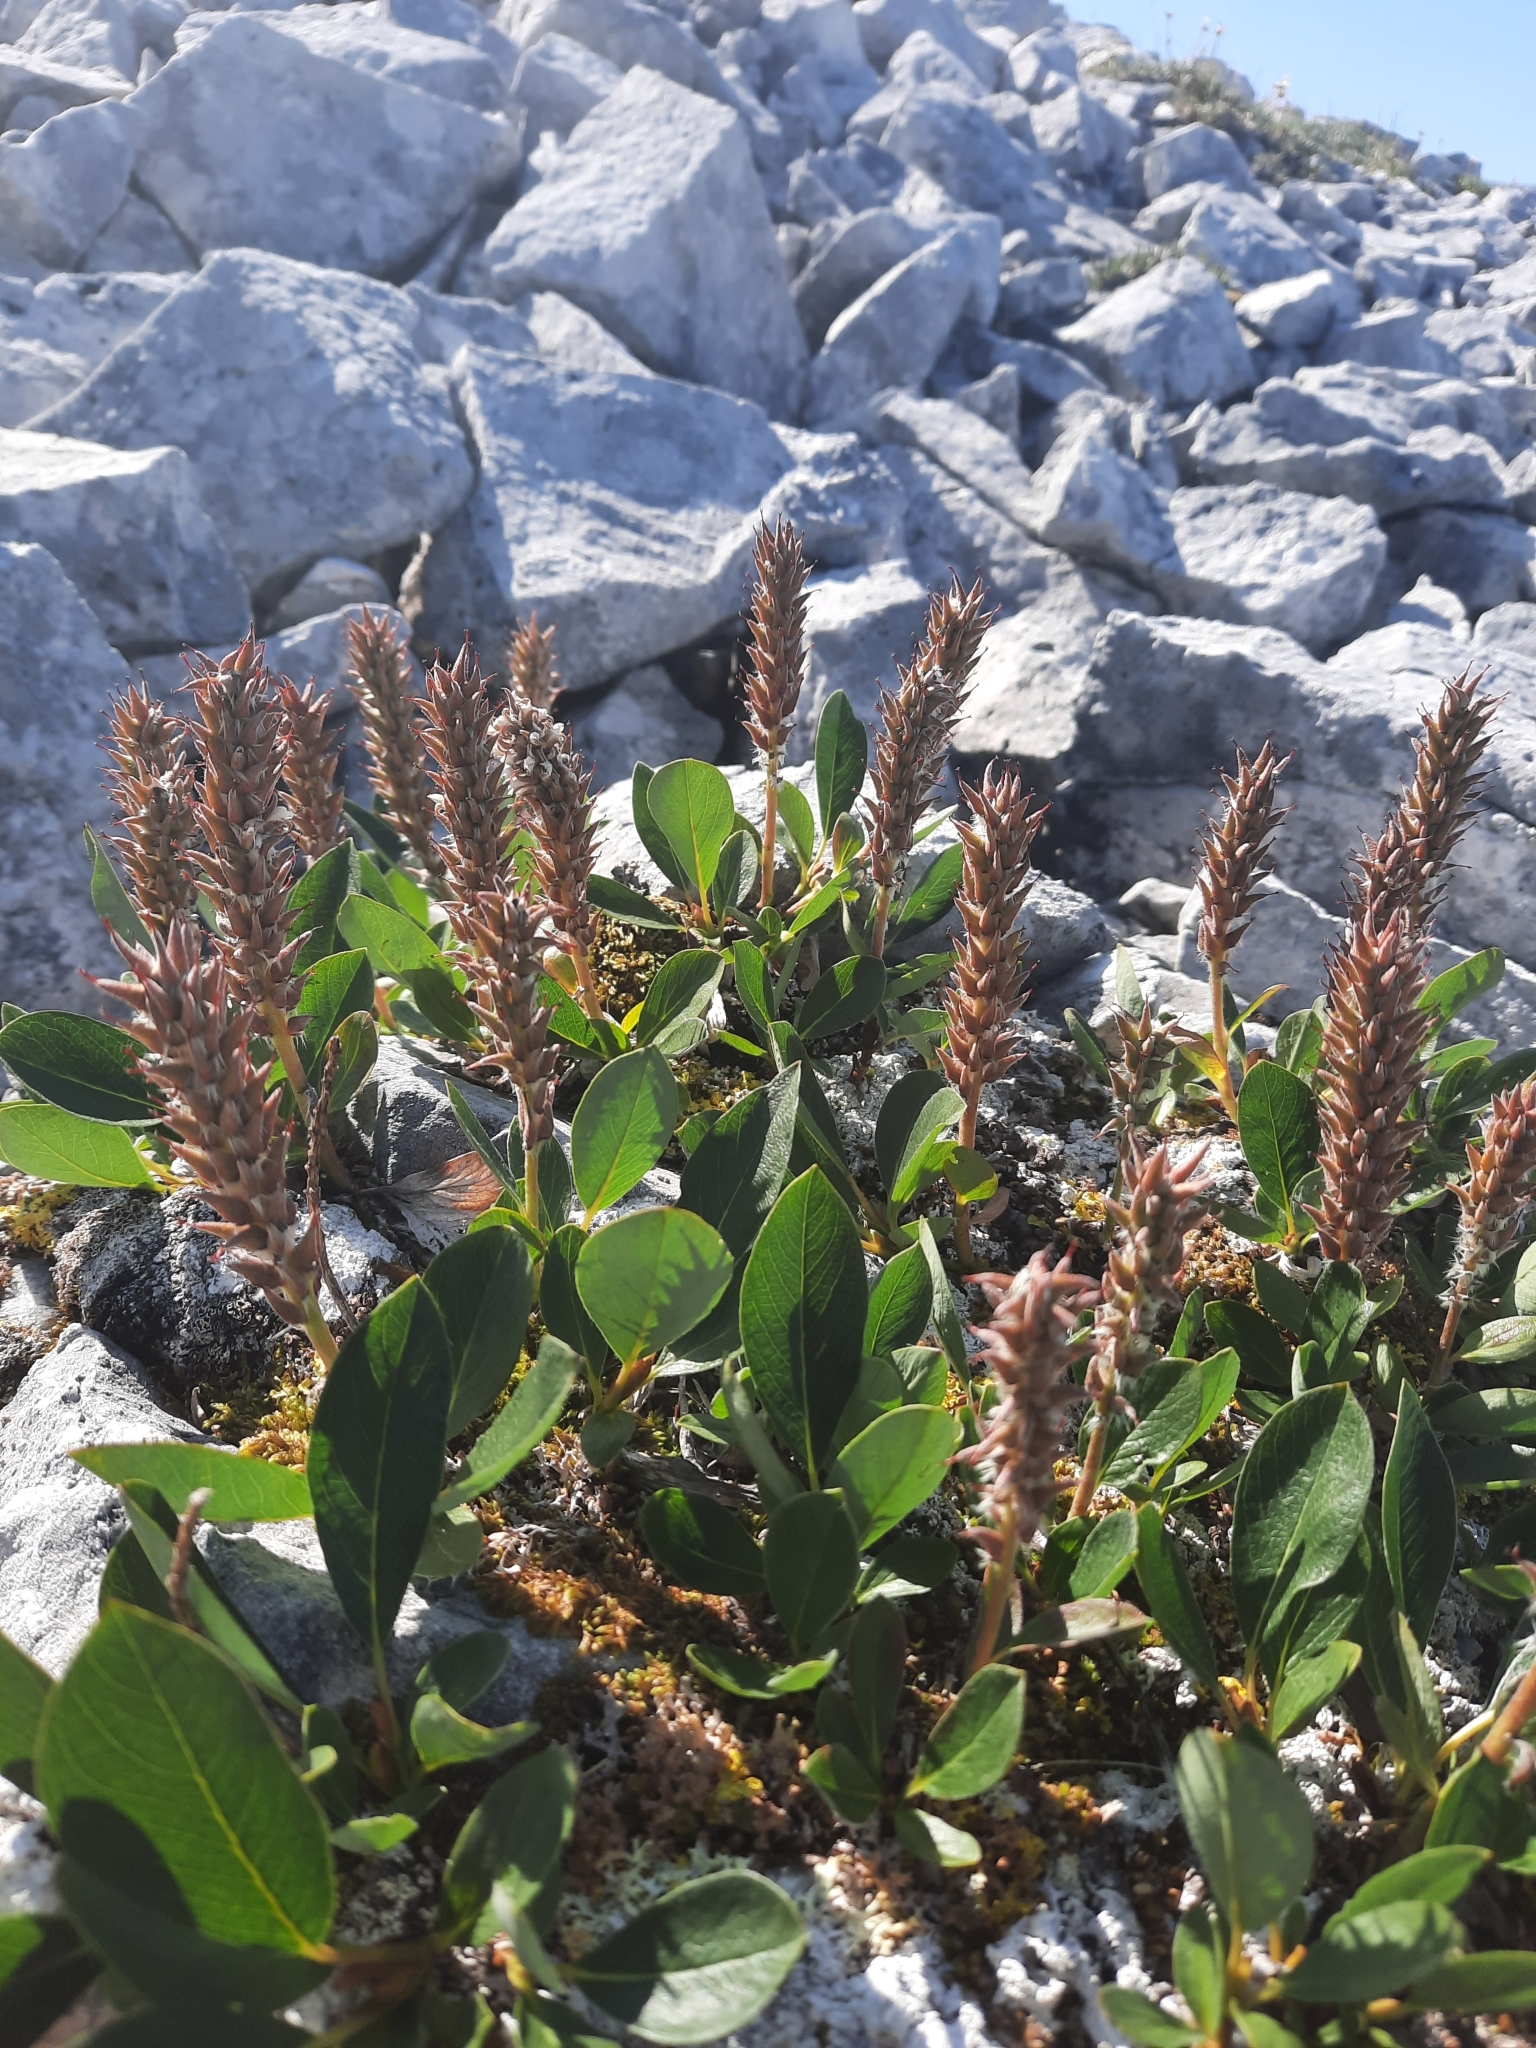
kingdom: Plantae
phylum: Tracheophyta
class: Magnoliopsida
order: Malpighiales
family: Salicaceae
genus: Salix
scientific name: Salix arctica
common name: Arctic willow
